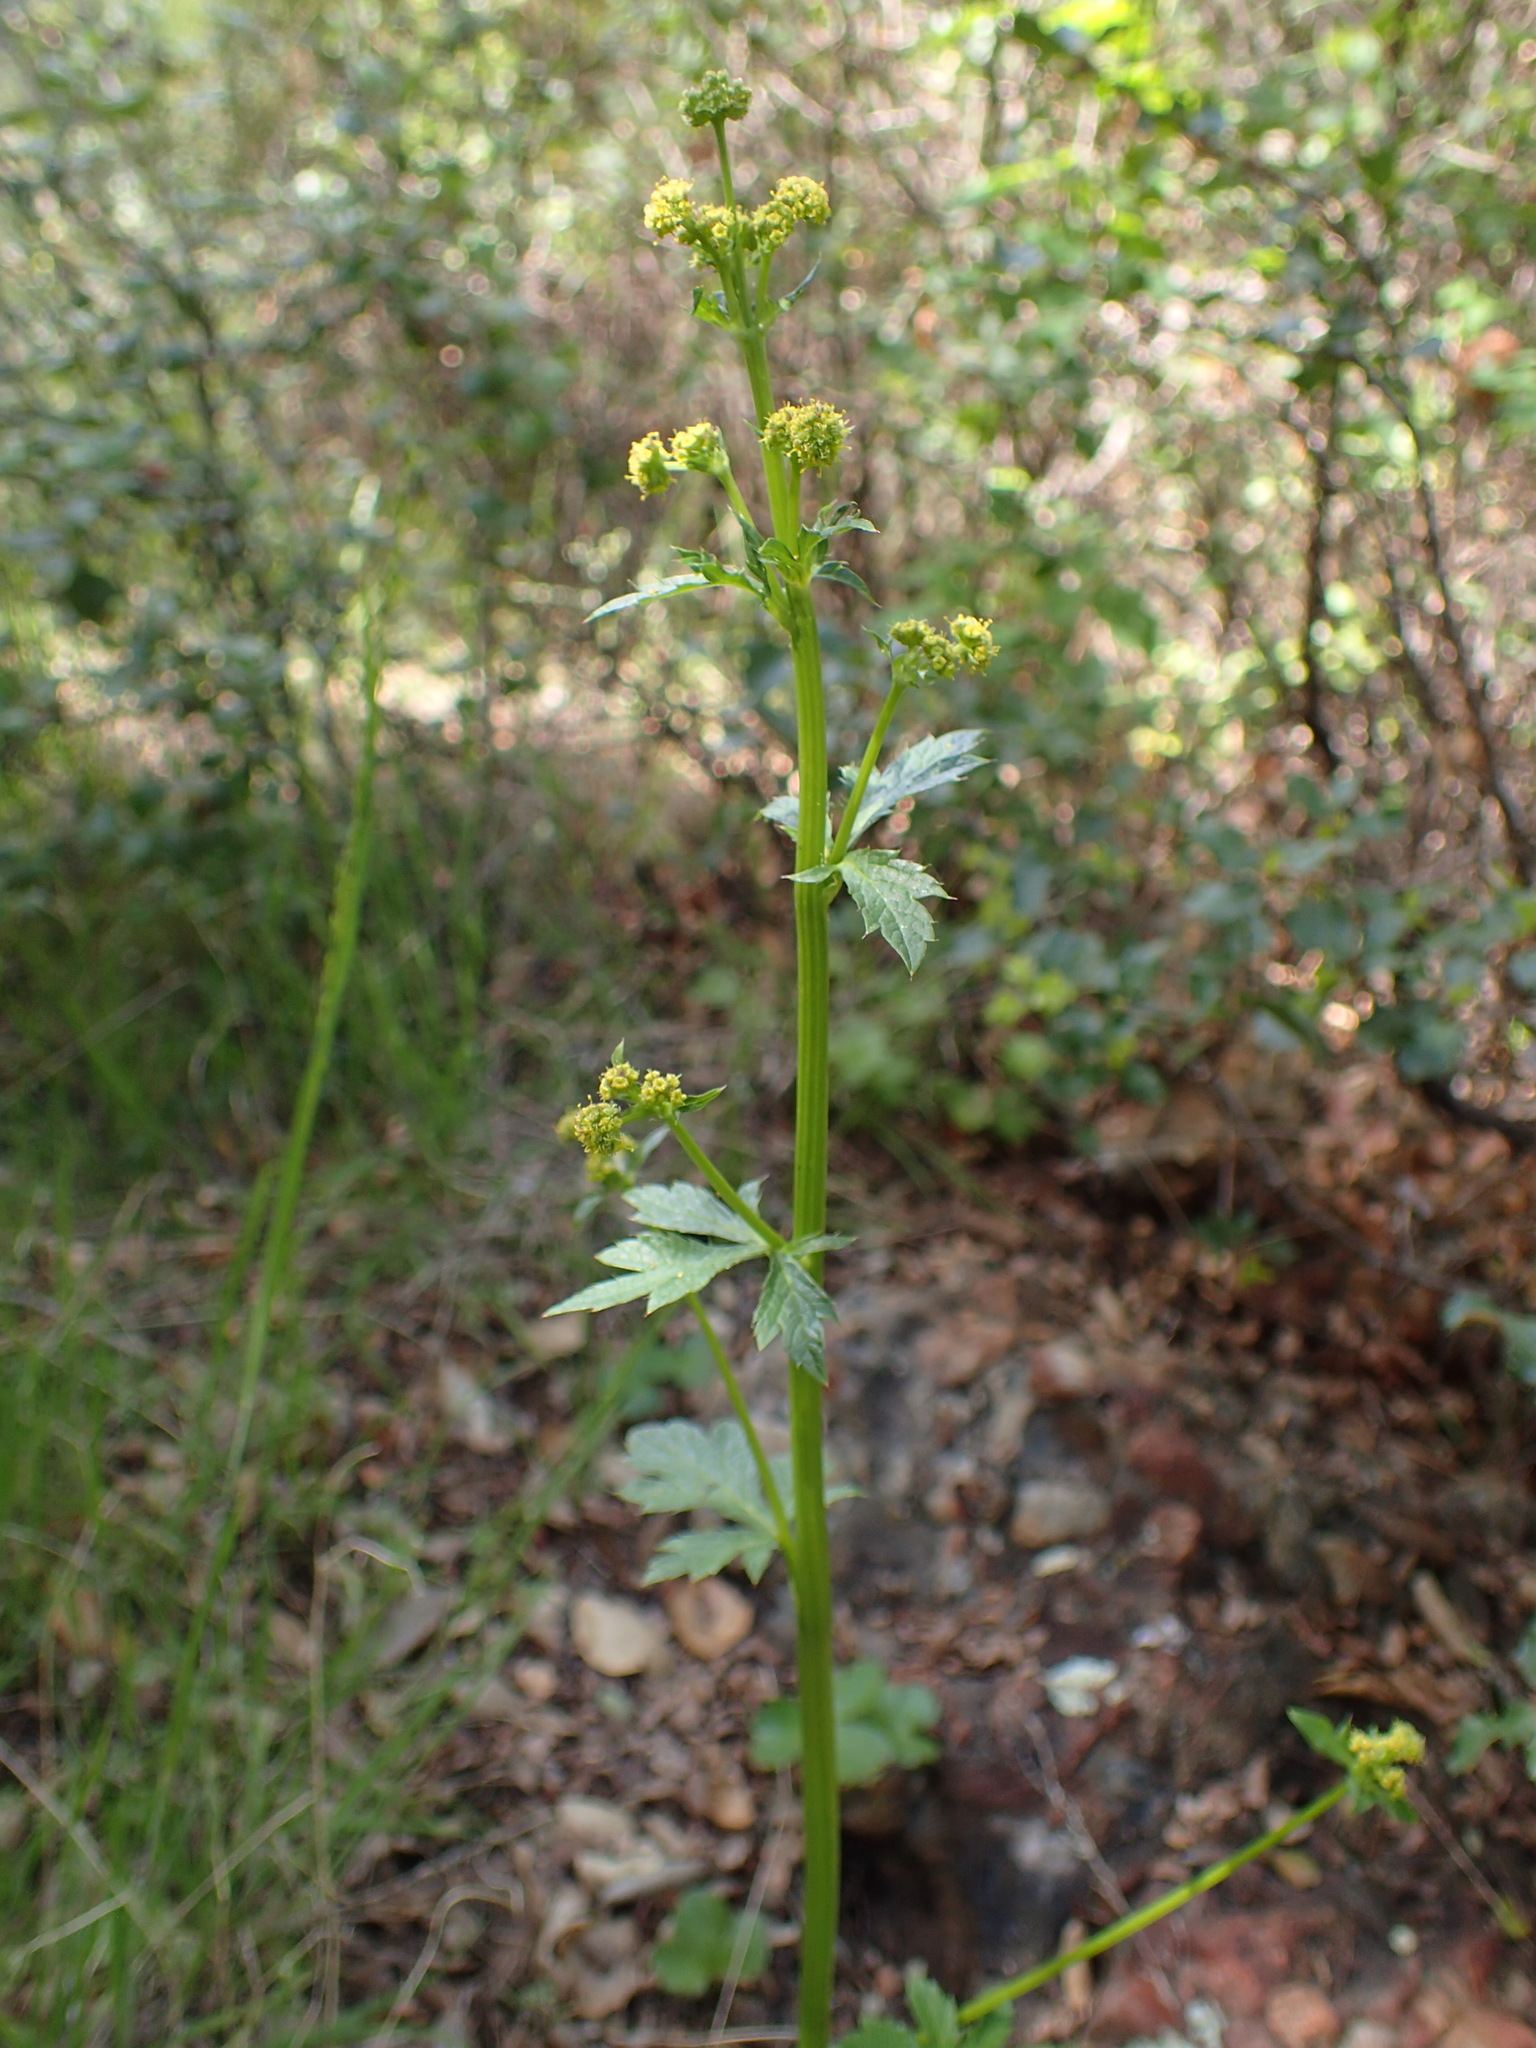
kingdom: Plantae
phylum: Tracheophyta
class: Magnoliopsida
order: Apiales
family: Apiaceae
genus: Sanicula
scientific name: Sanicula crassicaulis
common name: Western snakeroot
